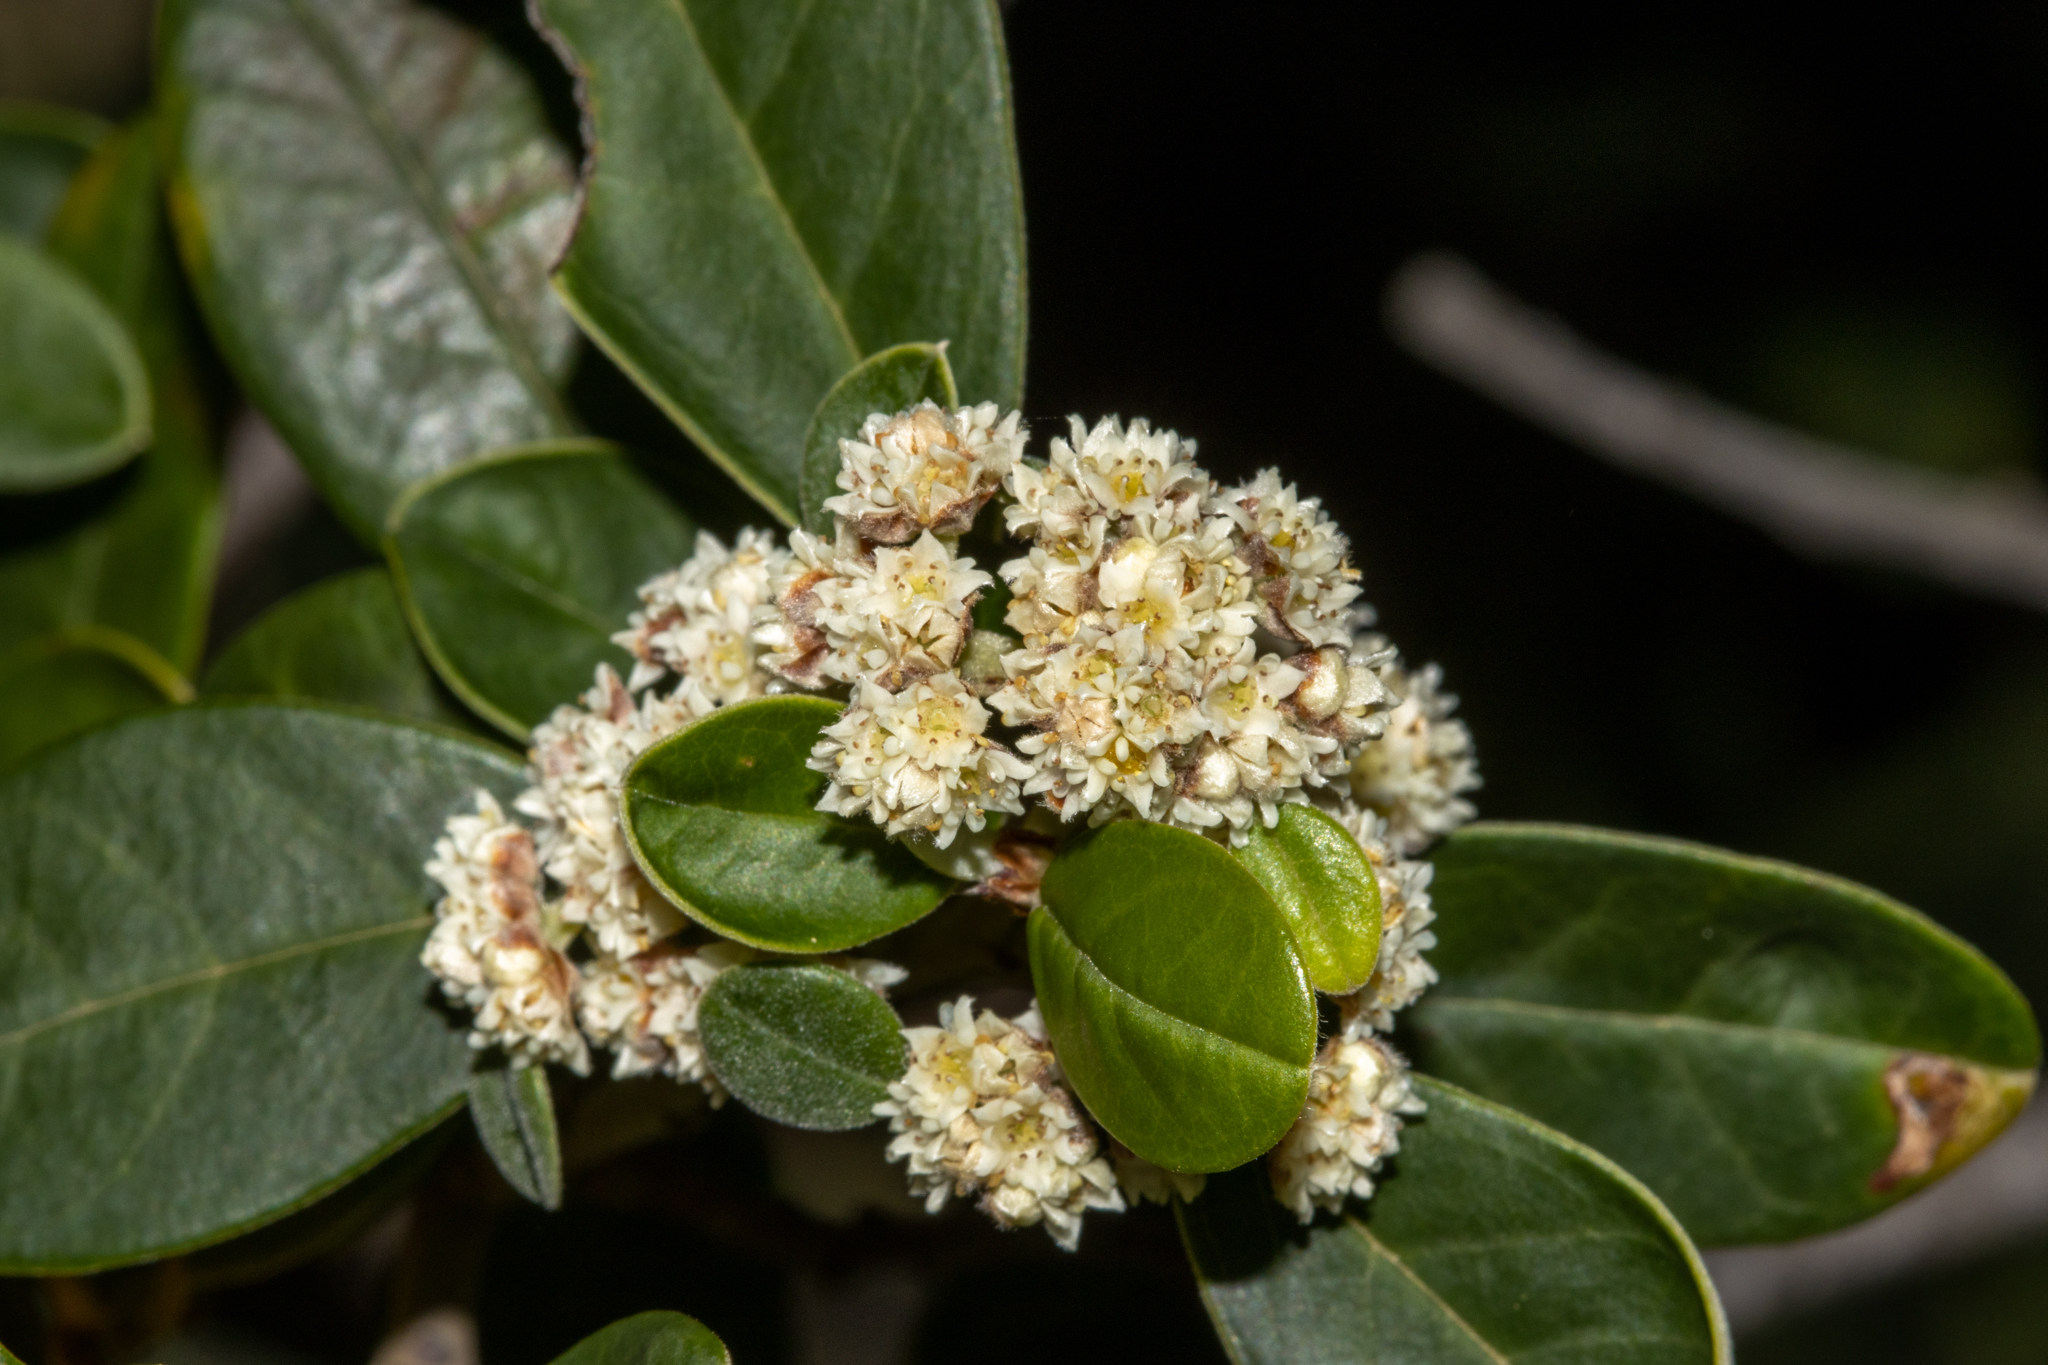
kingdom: Plantae
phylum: Tracheophyta
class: Magnoliopsida
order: Rosales
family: Rhamnaceae
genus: Spyridium
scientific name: Spyridium globulosum
